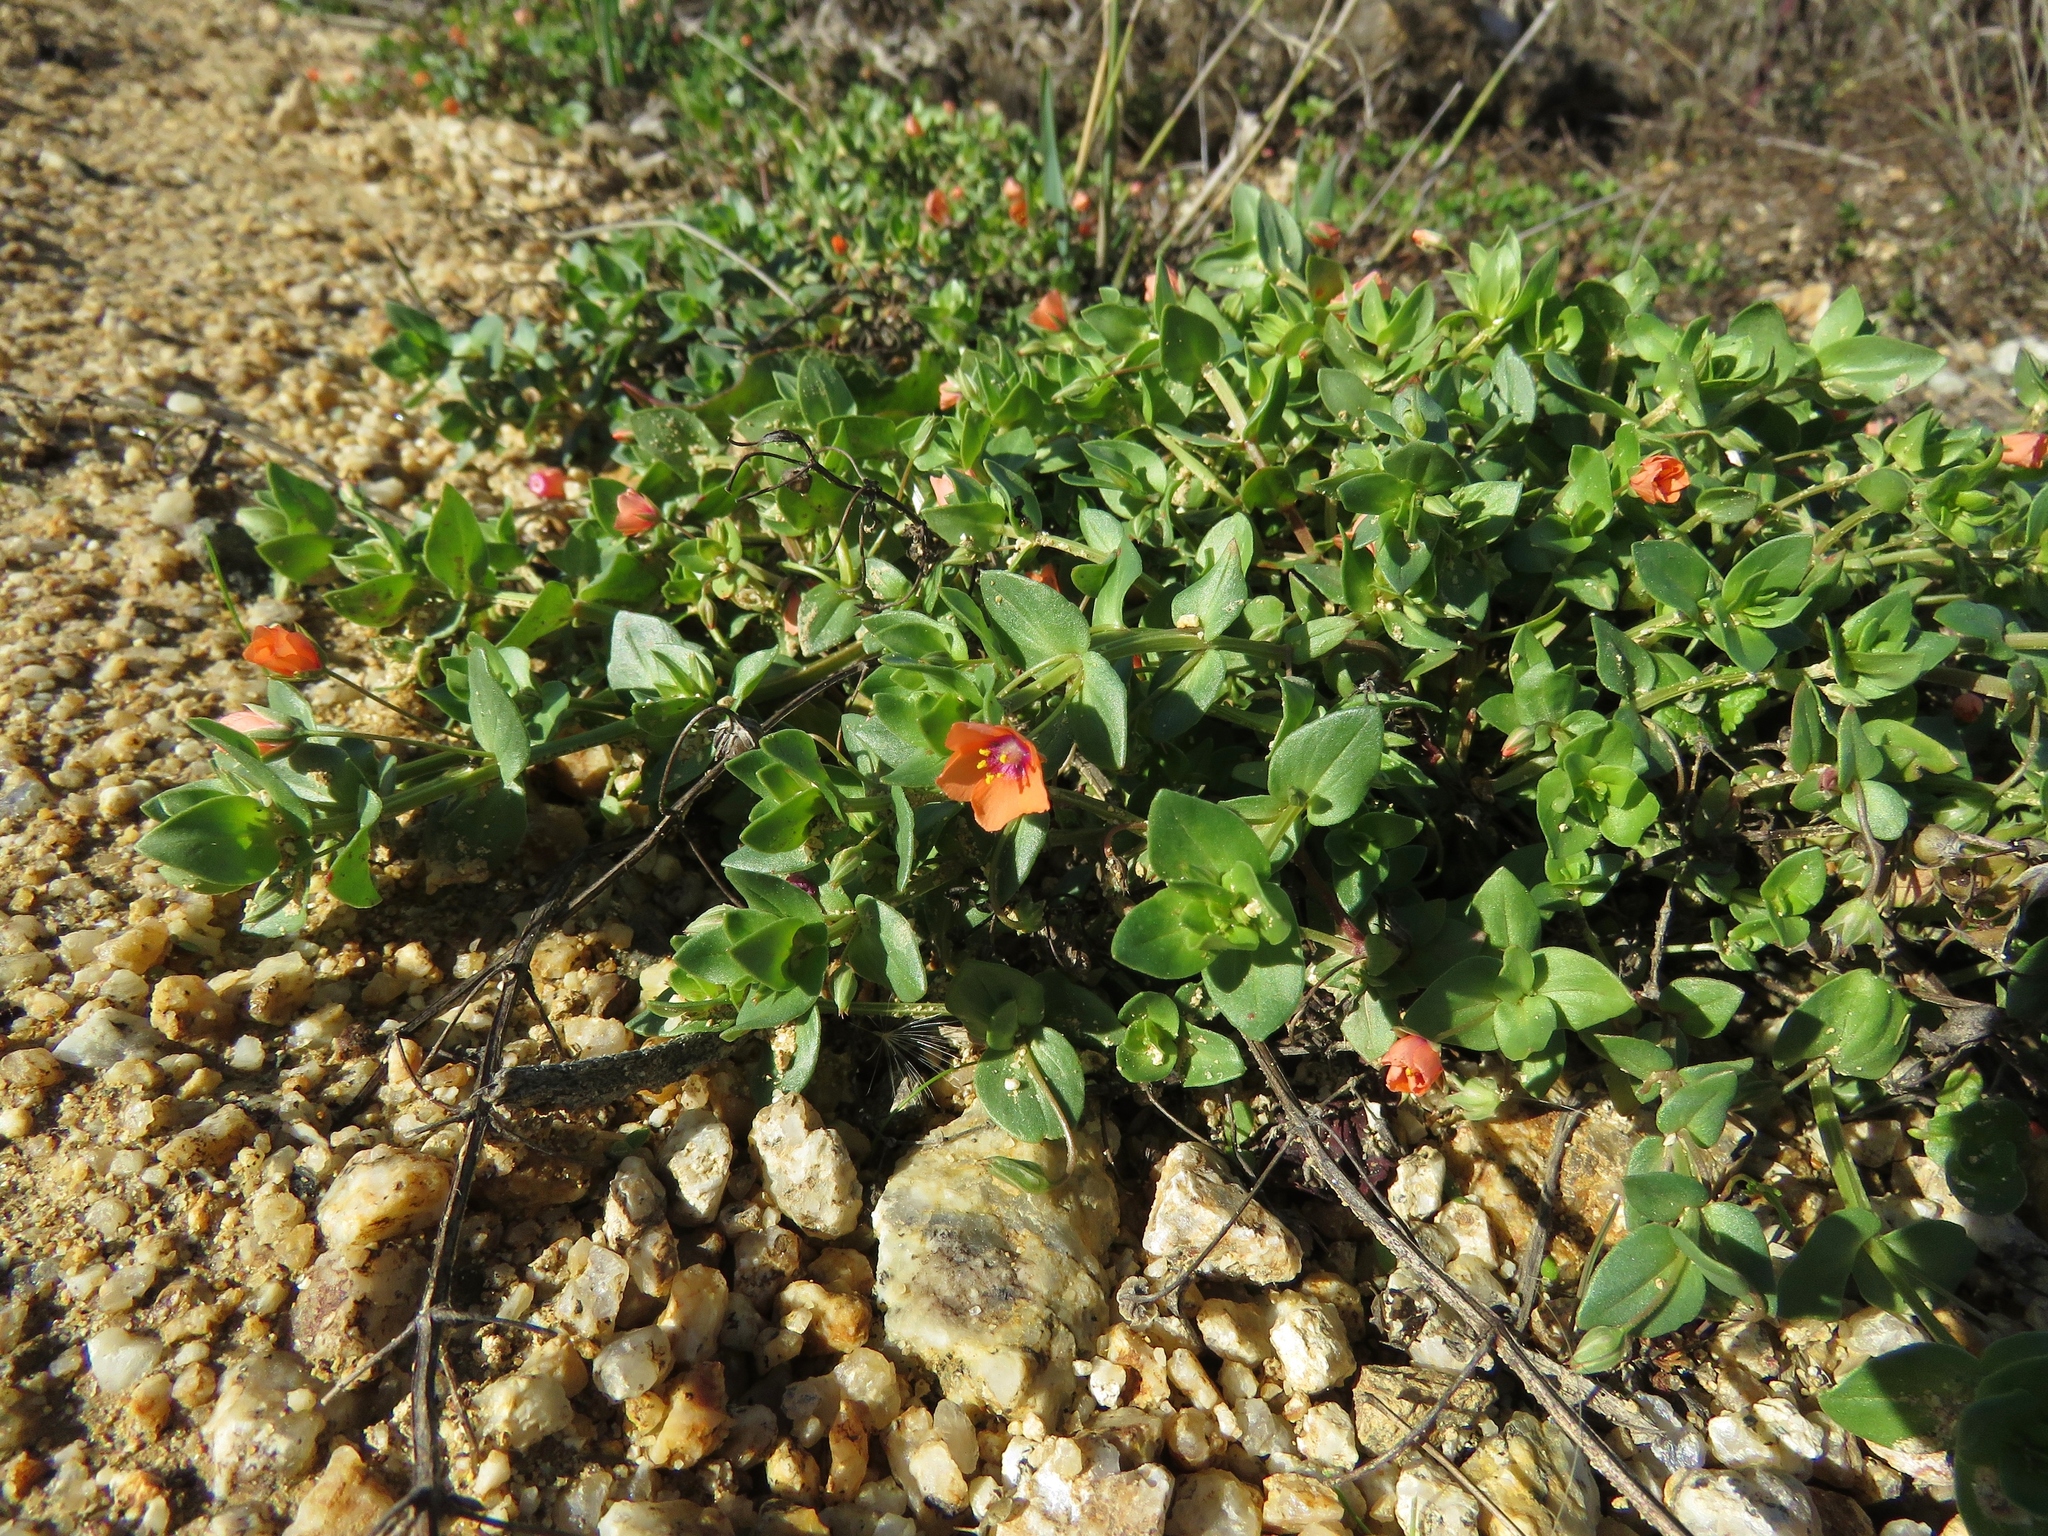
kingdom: Plantae
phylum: Tracheophyta
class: Magnoliopsida
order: Ericales
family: Primulaceae
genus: Lysimachia
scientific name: Lysimachia arvensis
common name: Scarlet pimpernel
